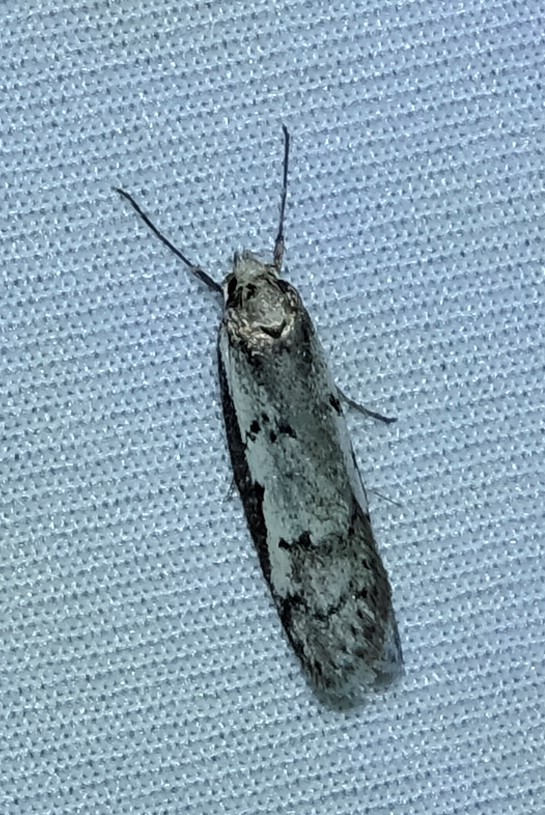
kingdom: Animalia
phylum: Arthropoda
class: Insecta
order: Lepidoptera
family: Oecophoridae
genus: Philobota
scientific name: Philobota stella
